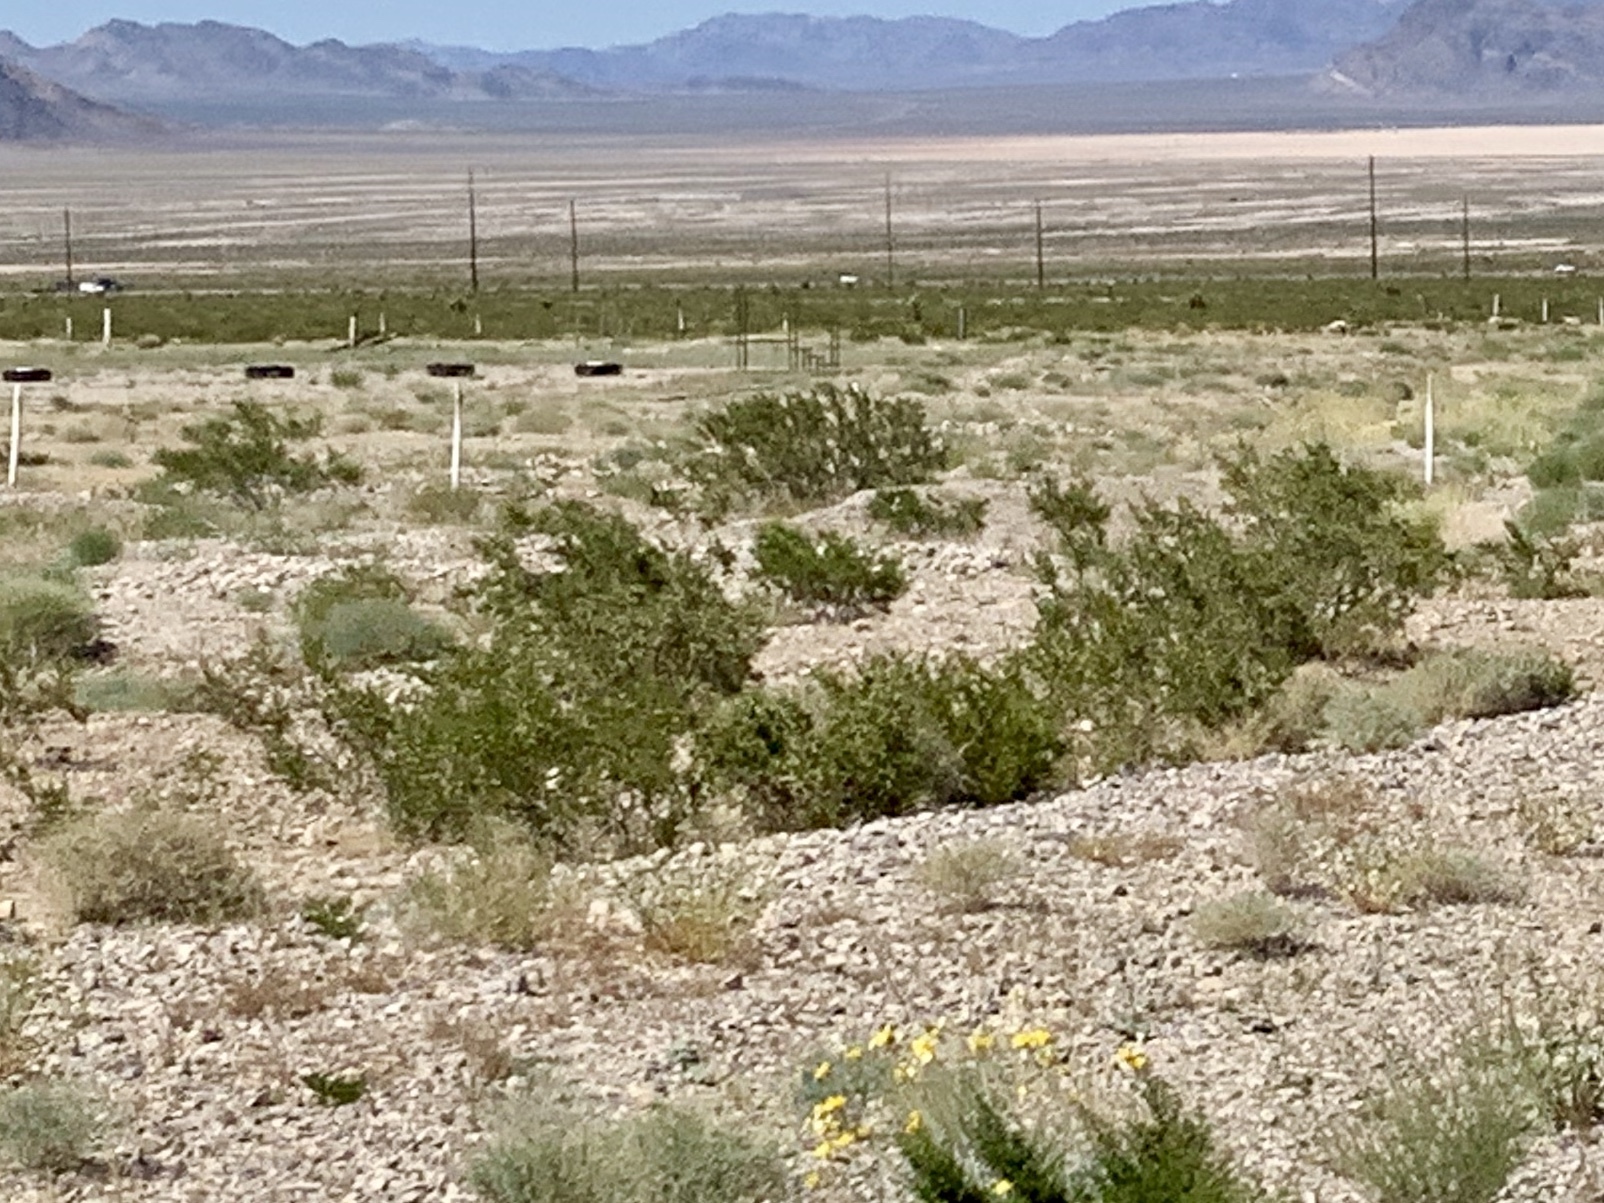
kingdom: Plantae
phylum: Tracheophyta
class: Magnoliopsida
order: Zygophyllales
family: Zygophyllaceae
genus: Larrea
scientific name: Larrea tridentata
